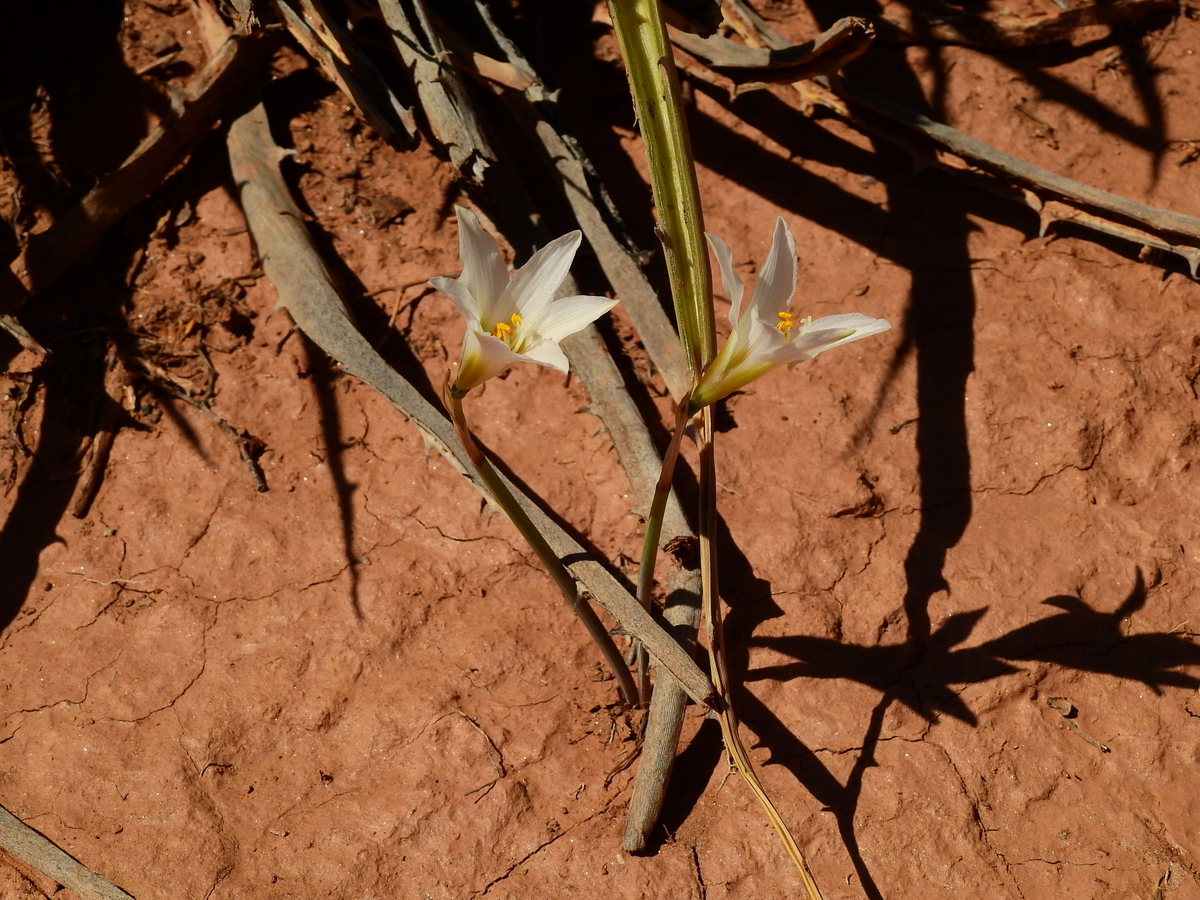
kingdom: Plantae
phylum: Tracheophyta
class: Liliopsida
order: Asparagales
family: Amaryllidaceae
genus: Zephyranthes
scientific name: Zephyranthes jamesonii
